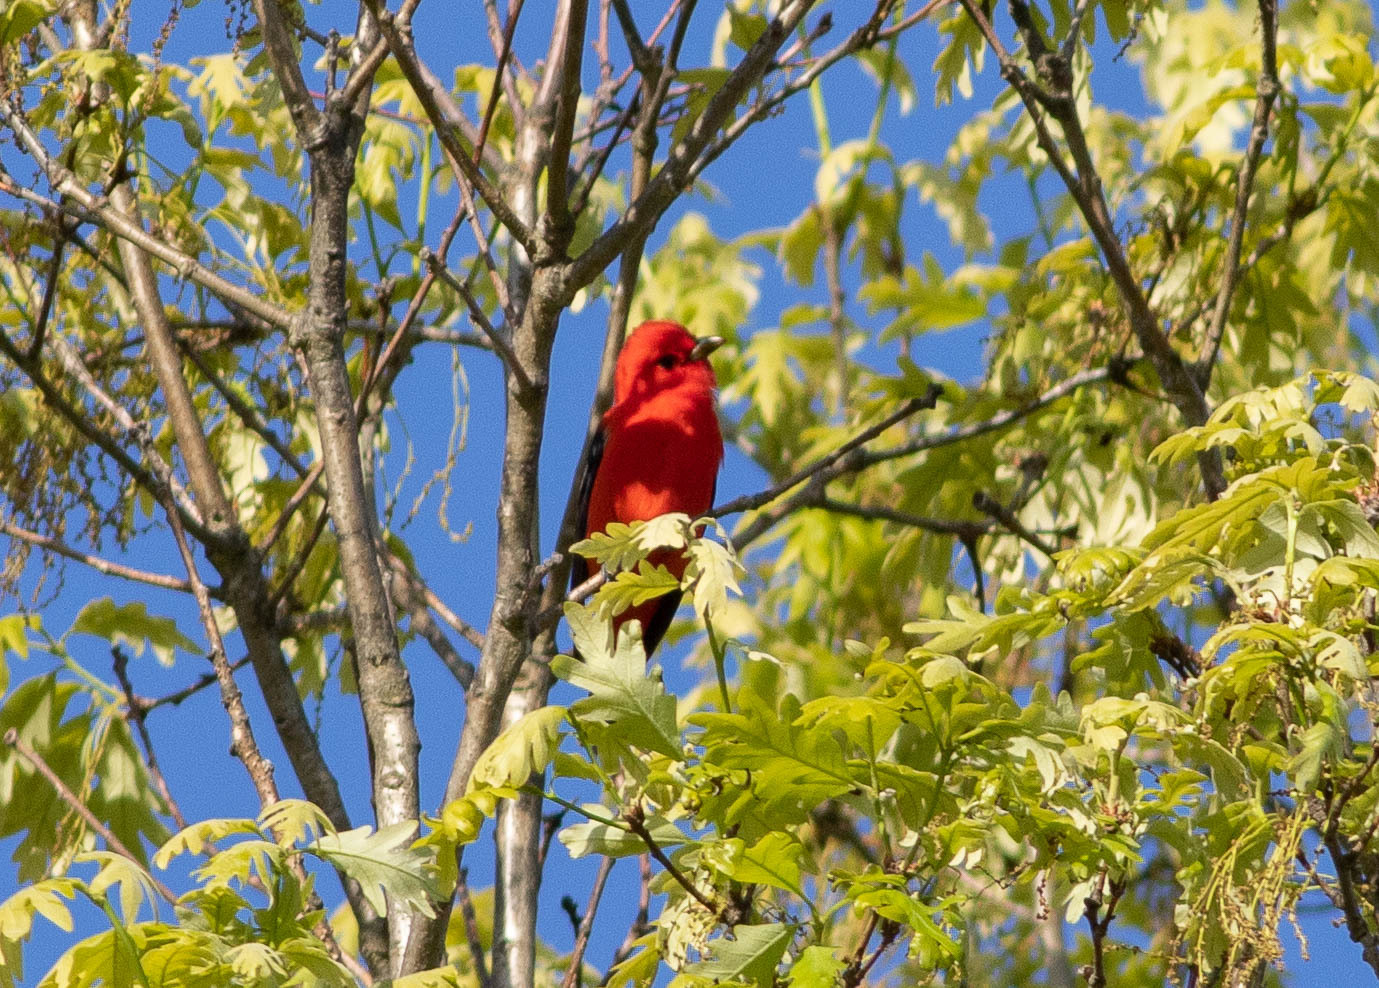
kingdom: Animalia
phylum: Chordata
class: Aves
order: Passeriformes
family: Cardinalidae
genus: Piranga
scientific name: Piranga olivacea
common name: Scarlet tanager
